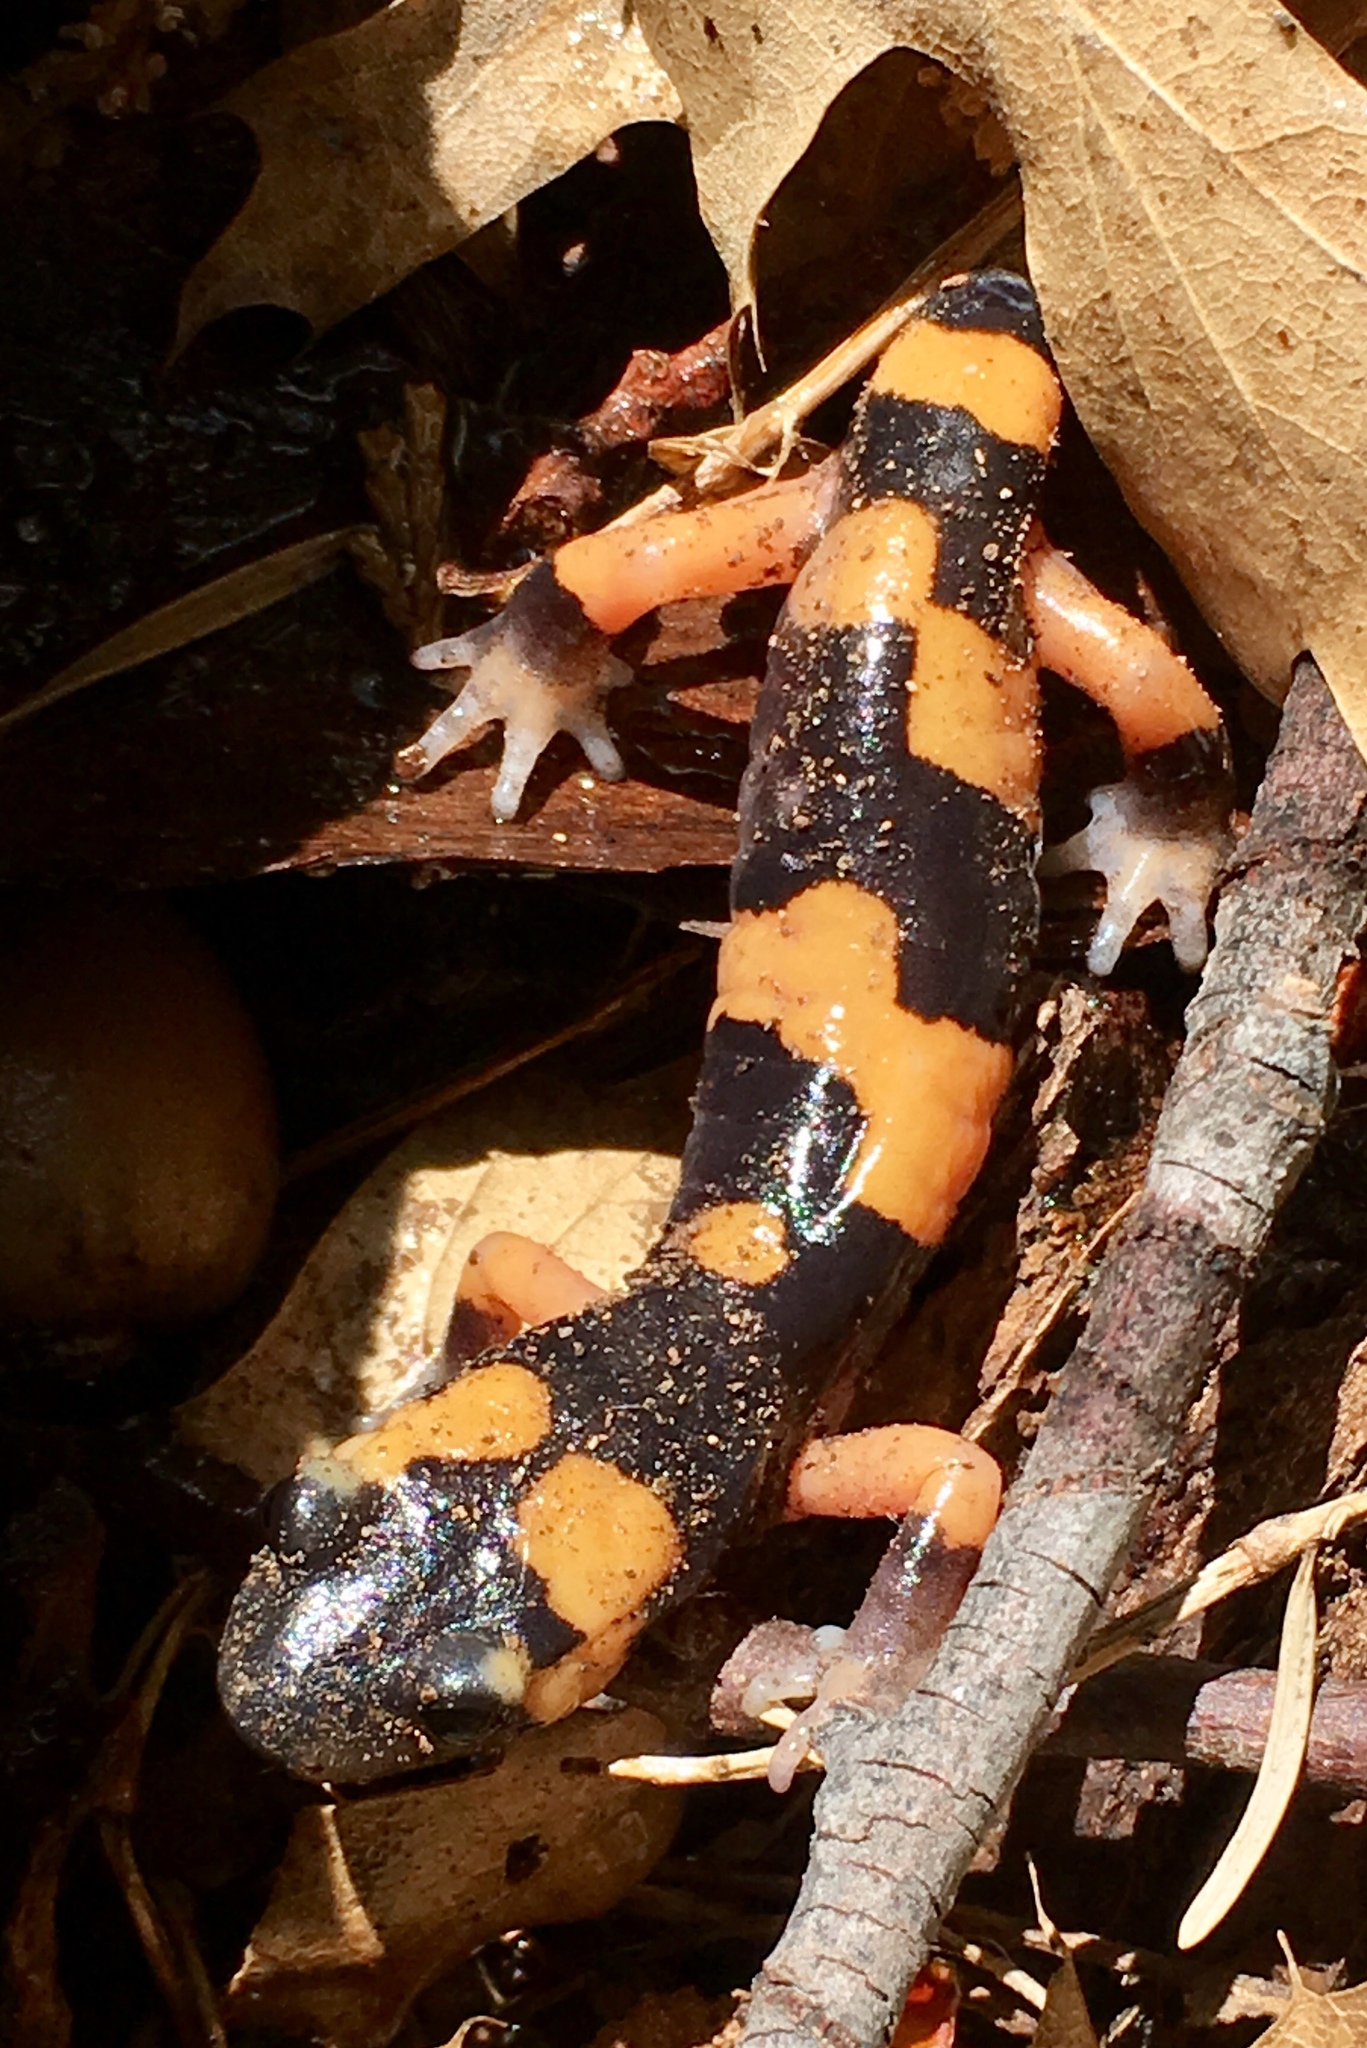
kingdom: Animalia
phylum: Chordata
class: Amphibia
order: Caudata
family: Plethodontidae
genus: Ensatina
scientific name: Ensatina eschscholtzii
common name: Ensatina
